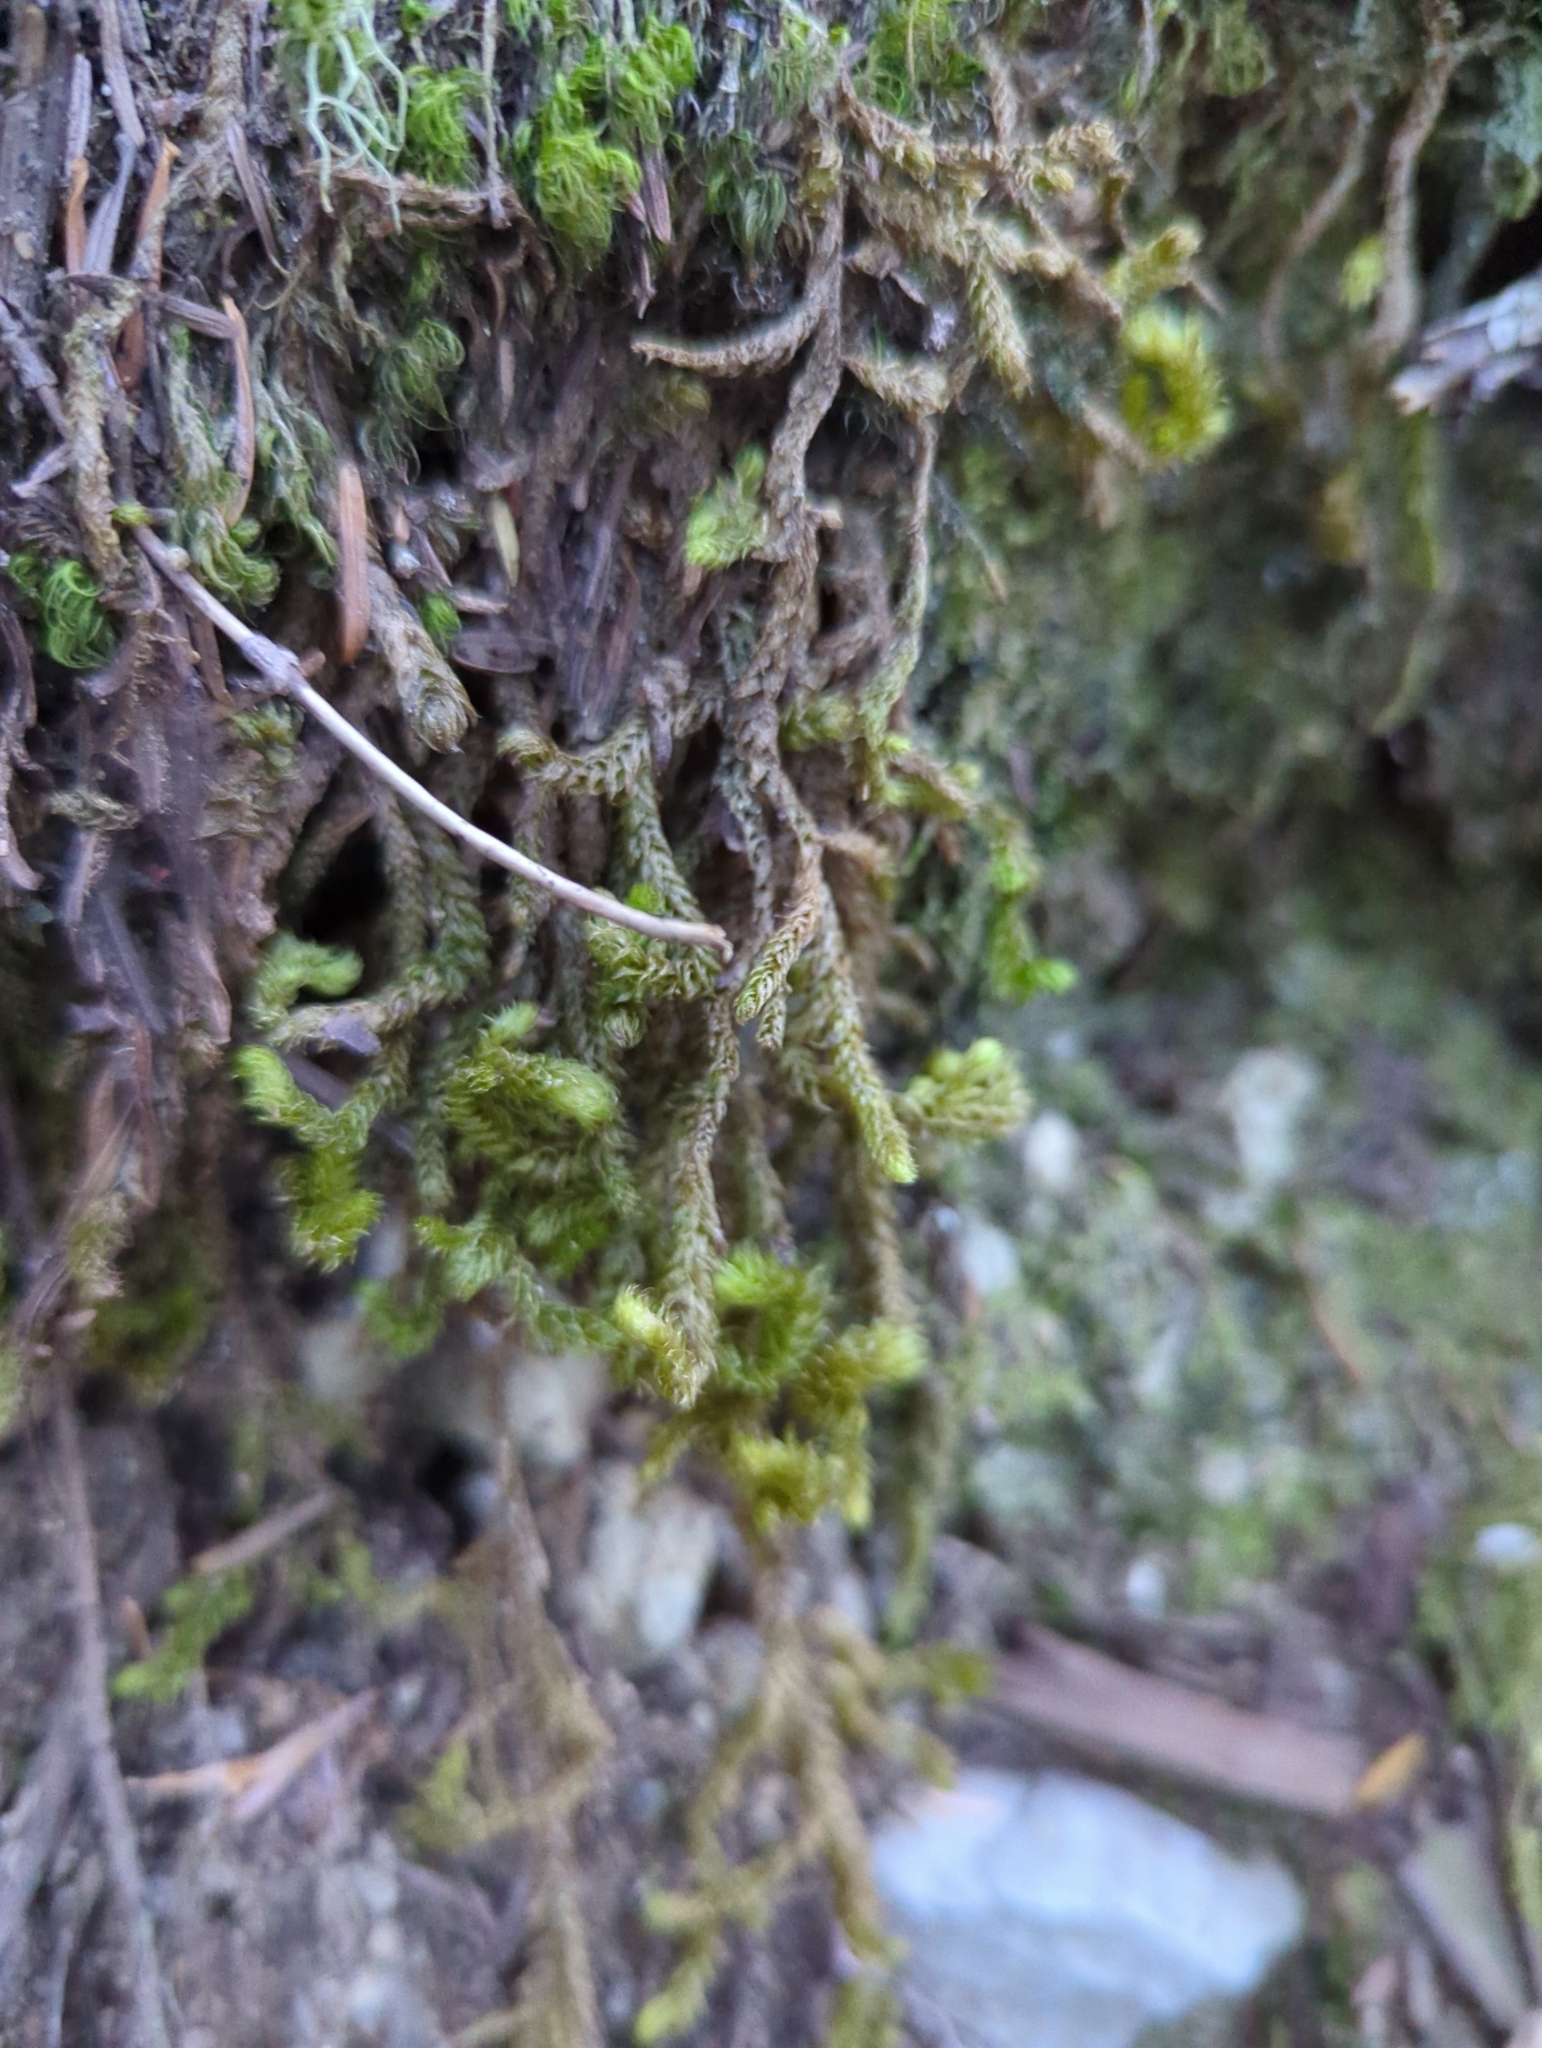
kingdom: Plantae
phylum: Bryophyta
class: Bryopsida
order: Hypnales
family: Hylocomiaceae
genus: Rhytidiopsis
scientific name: Rhytidiopsis robusta
